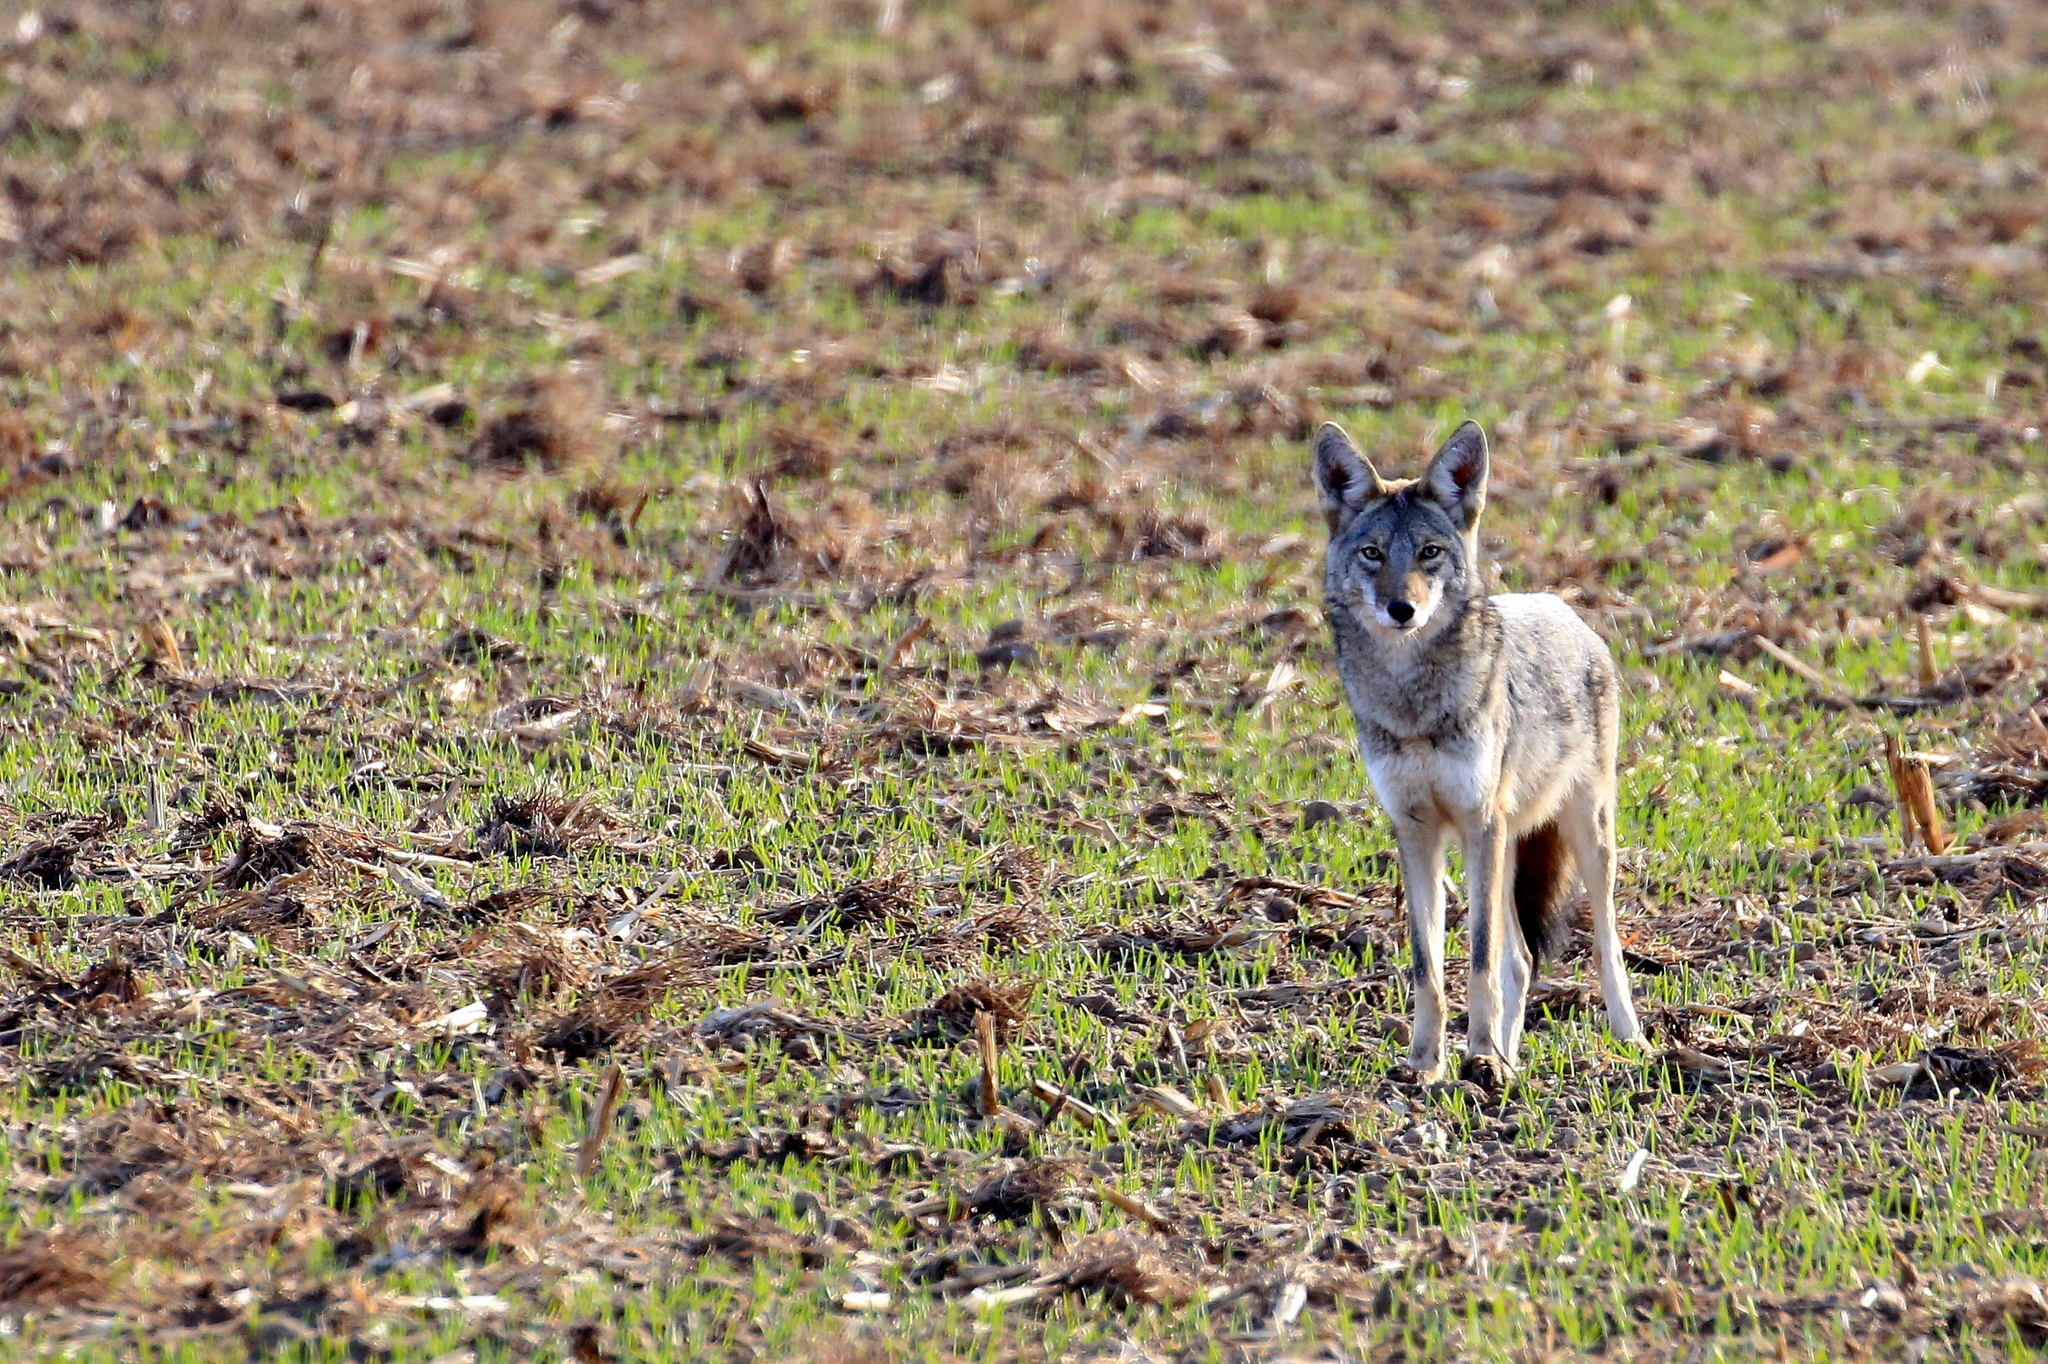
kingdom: Animalia
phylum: Chordata
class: Mammalia
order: Carnivora
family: Canidae
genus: Canis
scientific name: Canis latrans
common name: Coyote
